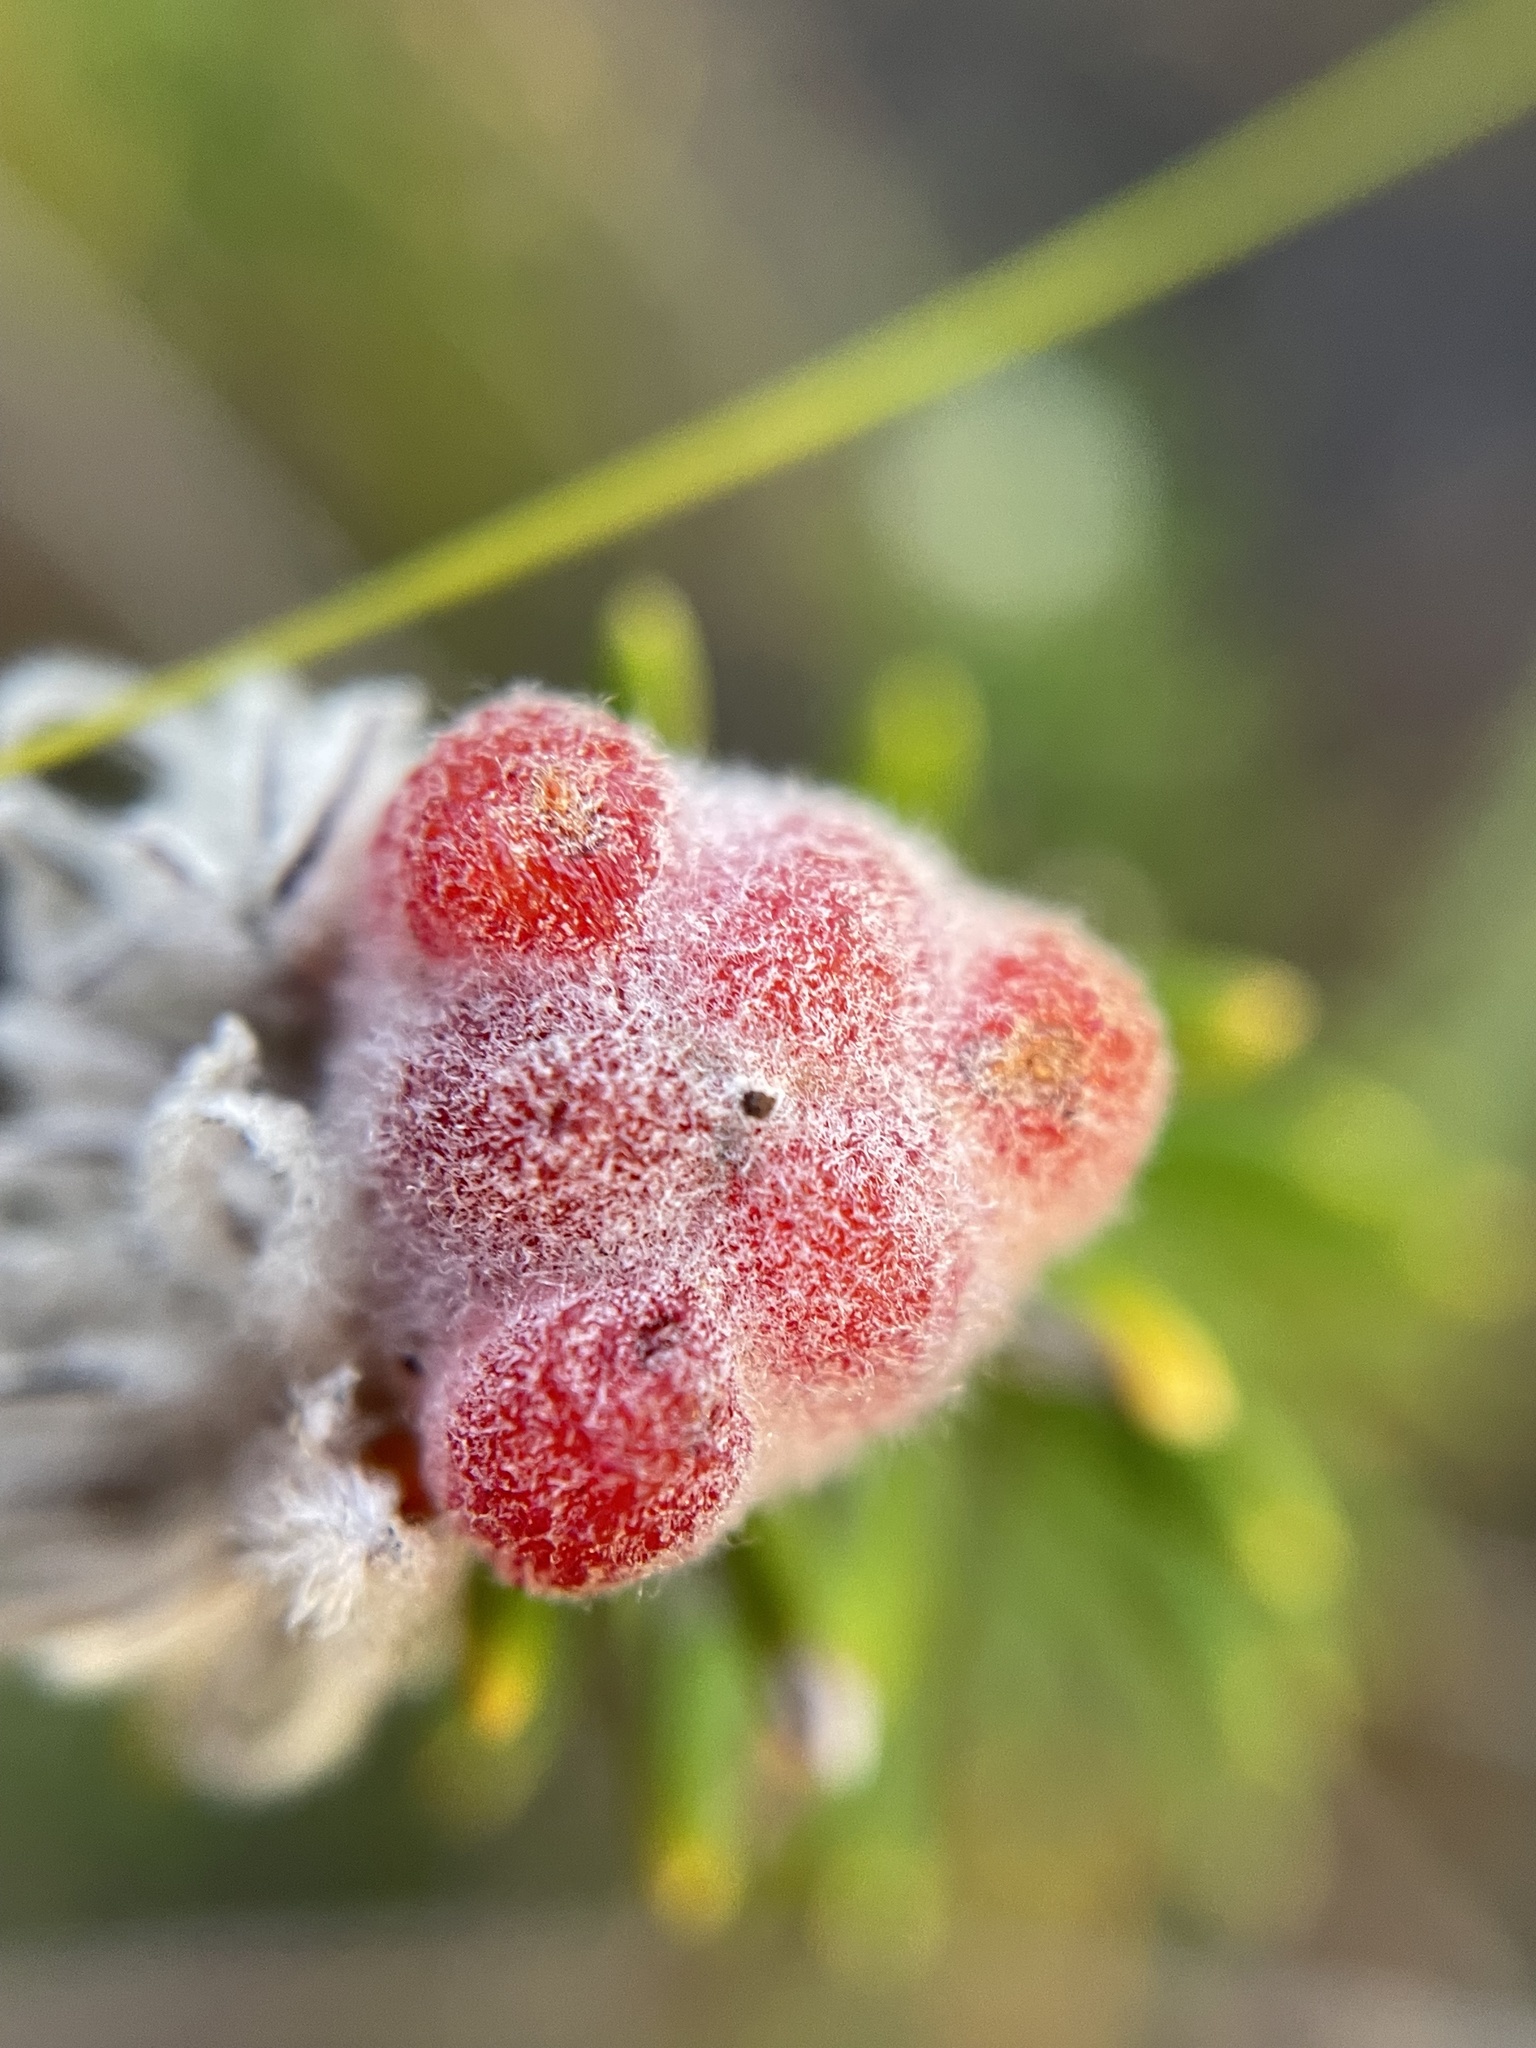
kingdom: Plantae
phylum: Tracheophyta
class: Magnoliopsida
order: Rosales
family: Rhamnaceae
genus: Trichocephalus
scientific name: Trichocephalus stipularis
